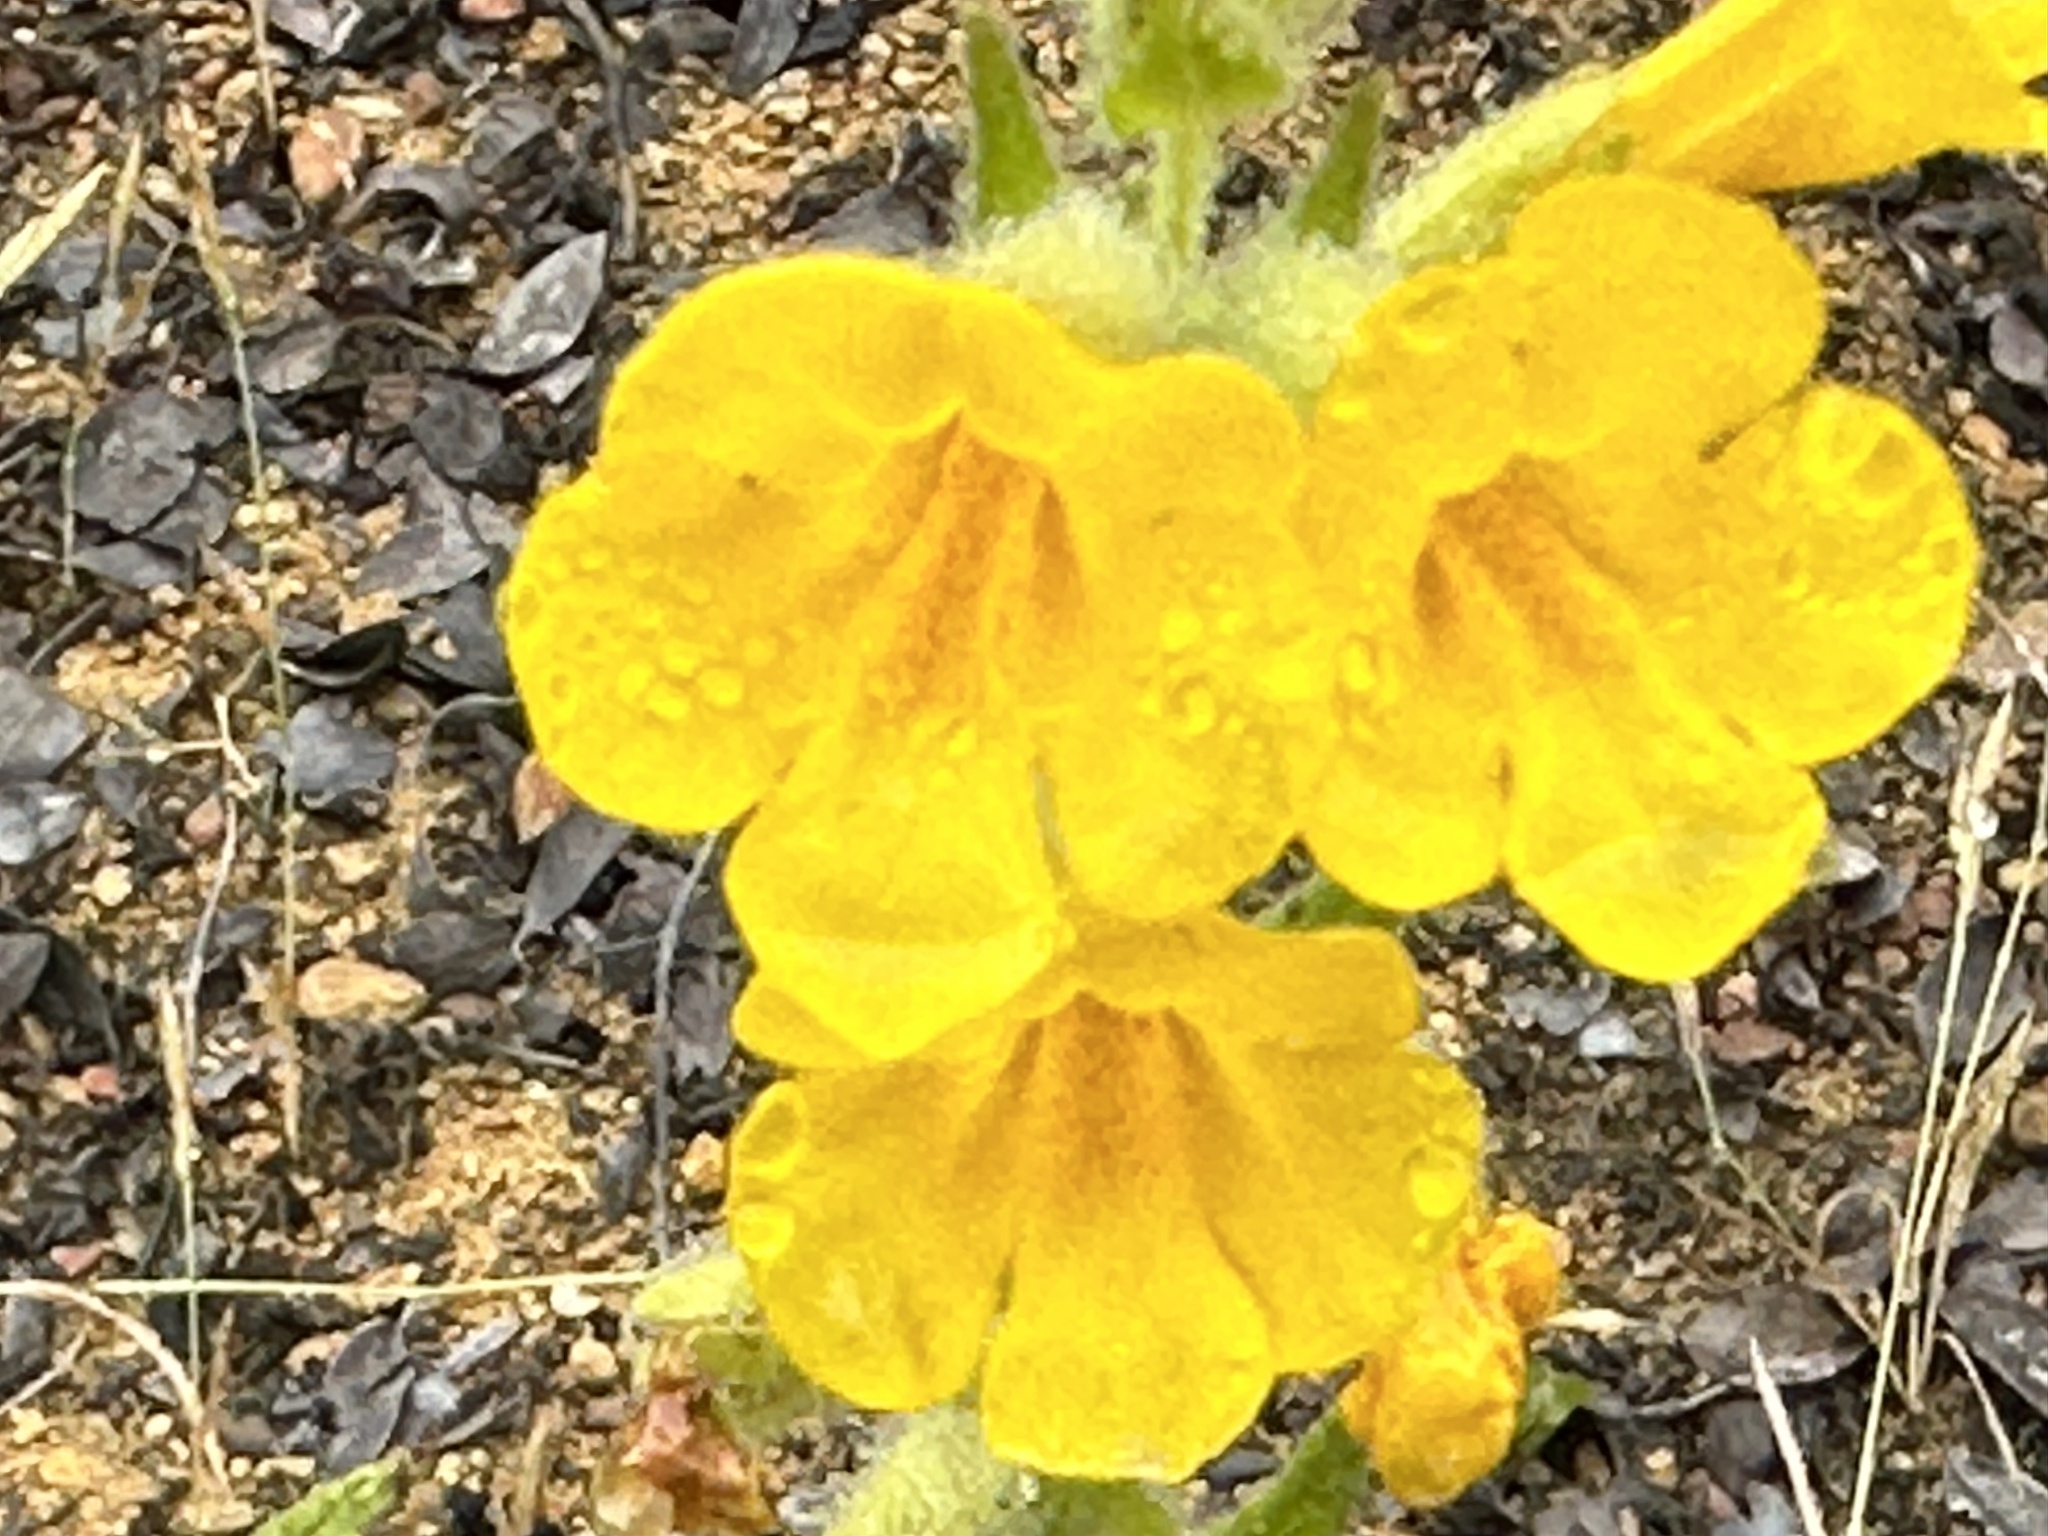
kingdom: Plantae
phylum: Tracheophyta
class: Magnoliopsida
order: Lamiales
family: Phrymaceae
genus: Diplacus
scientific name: Diplacus clevelandii
